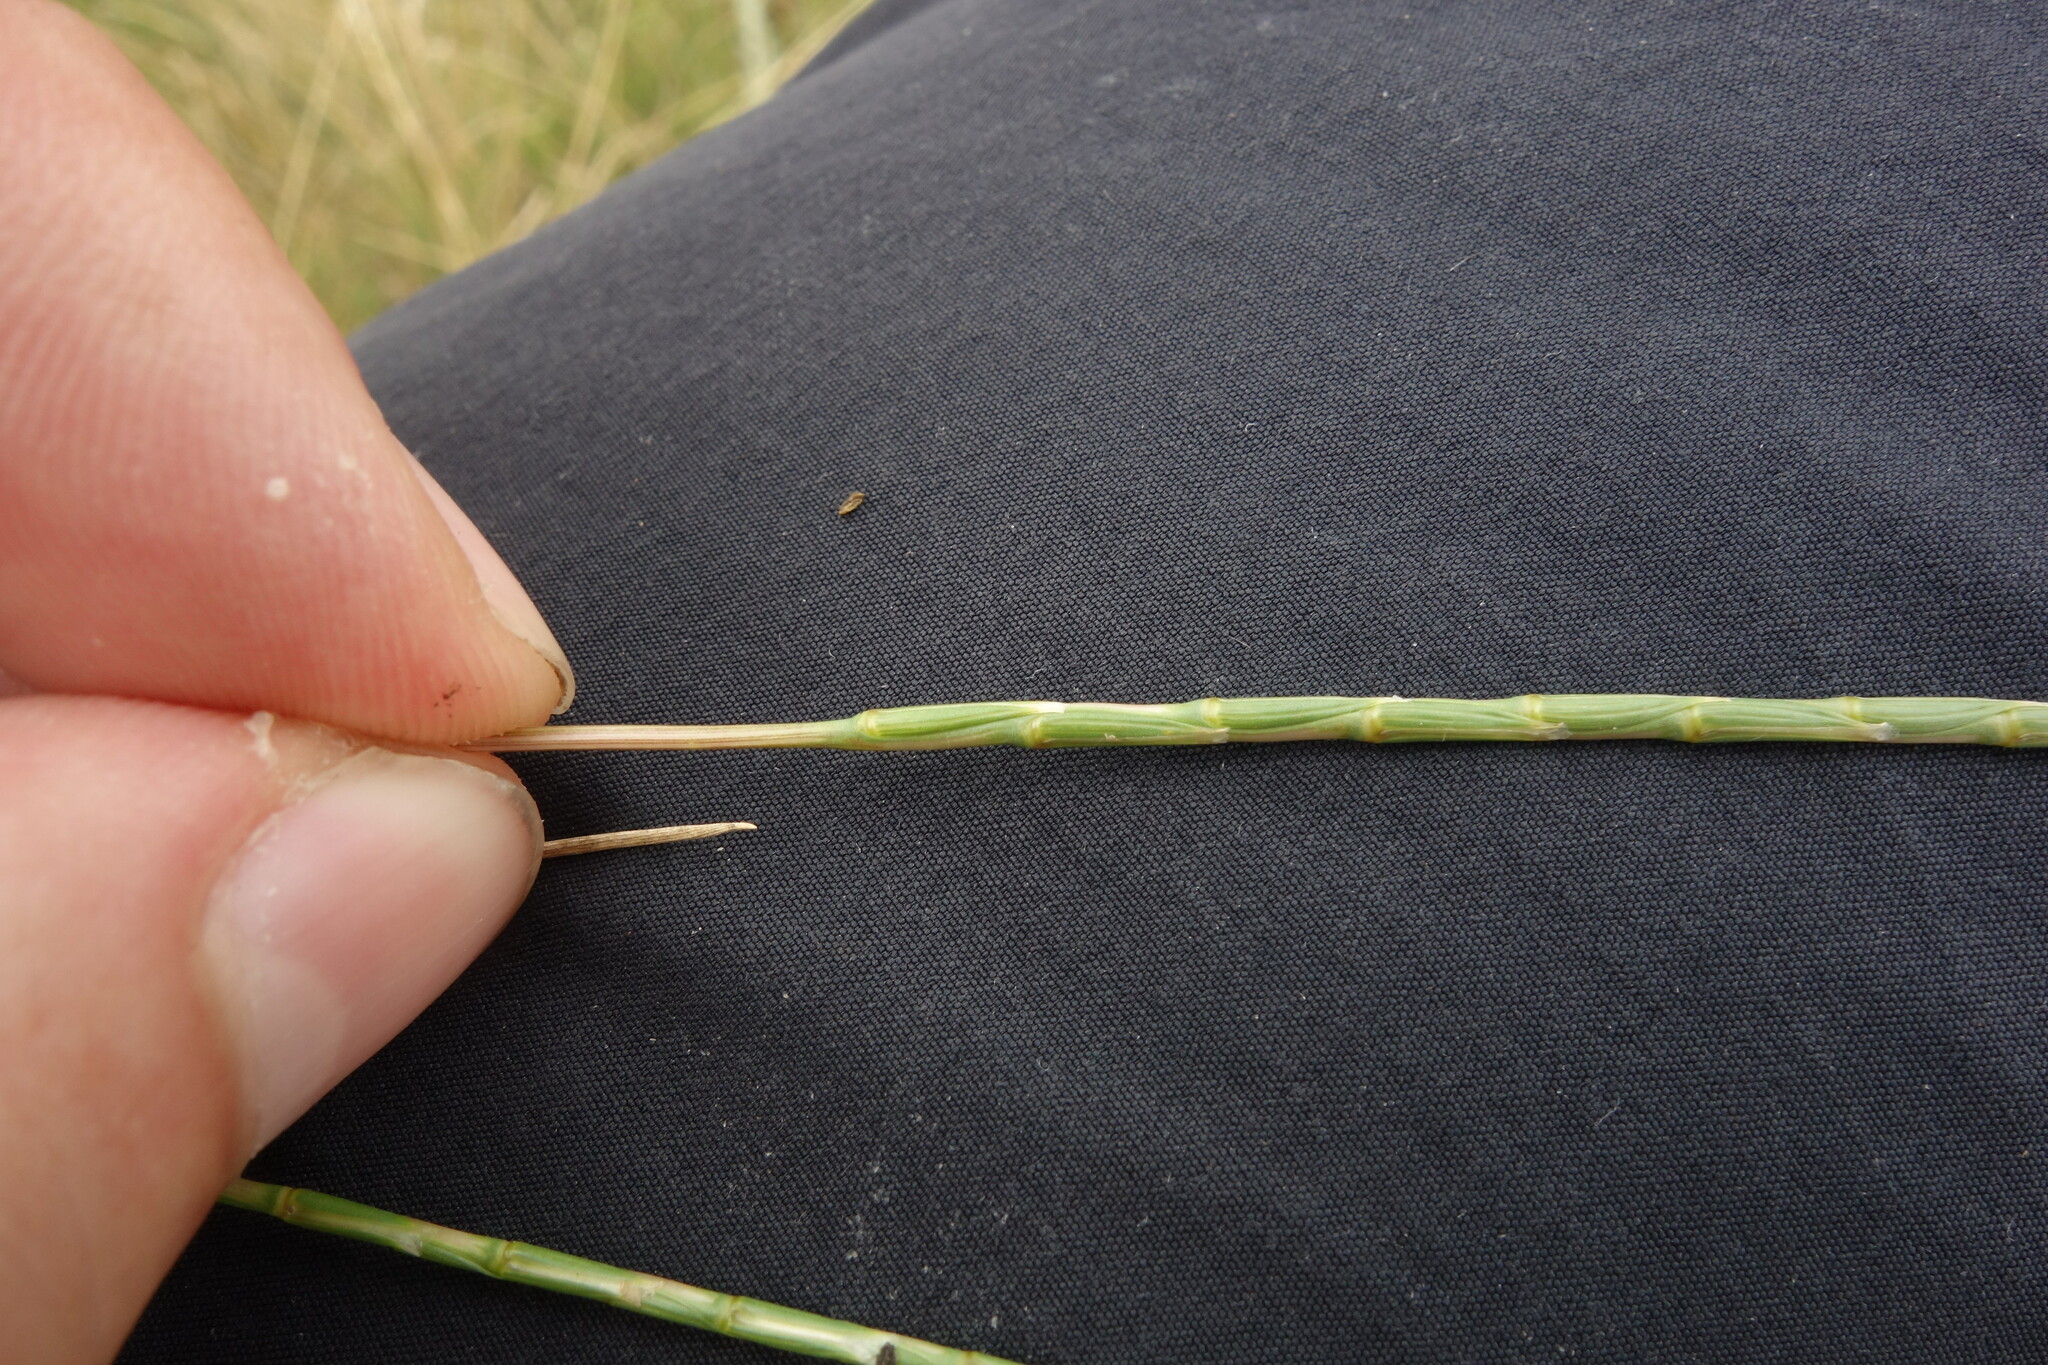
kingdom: Plantae
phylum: Tracheophyta
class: Liliopsida
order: Poales
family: Poaceae
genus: Pholiurus
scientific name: Pholiurus pannonicus
